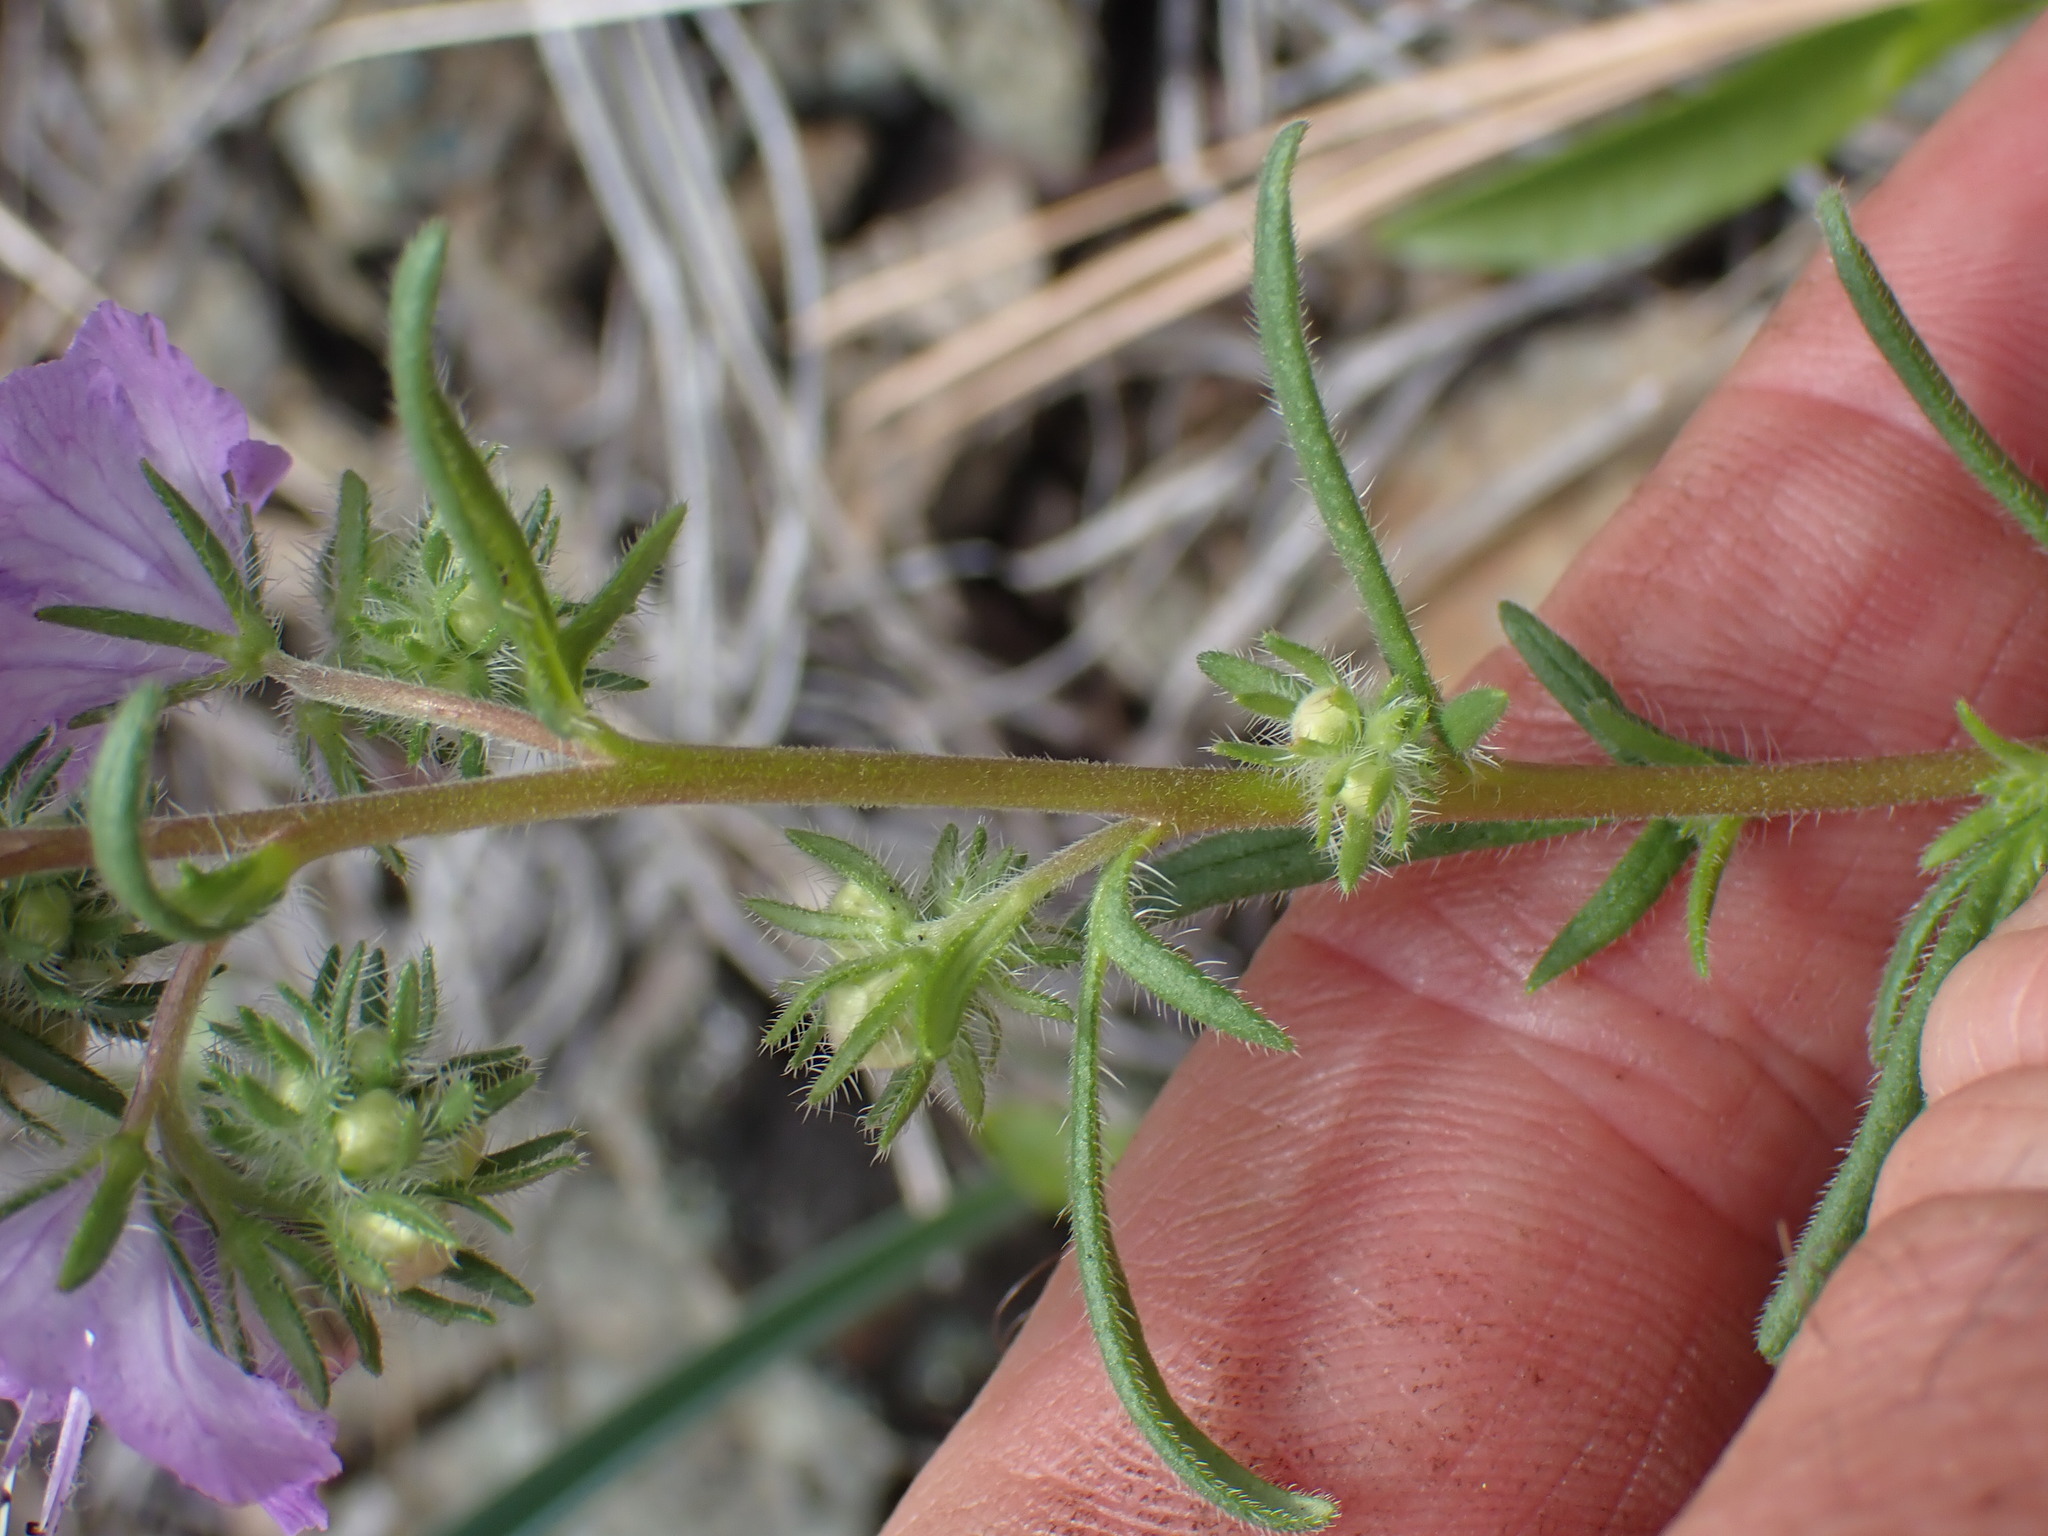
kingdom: Plantae
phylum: Tracheophyta
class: Magnoliopsida
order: Boraginales
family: Hydrophyllaceae
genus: Phacelia
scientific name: Phacelia linearis
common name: Linear-leaved phacelia
